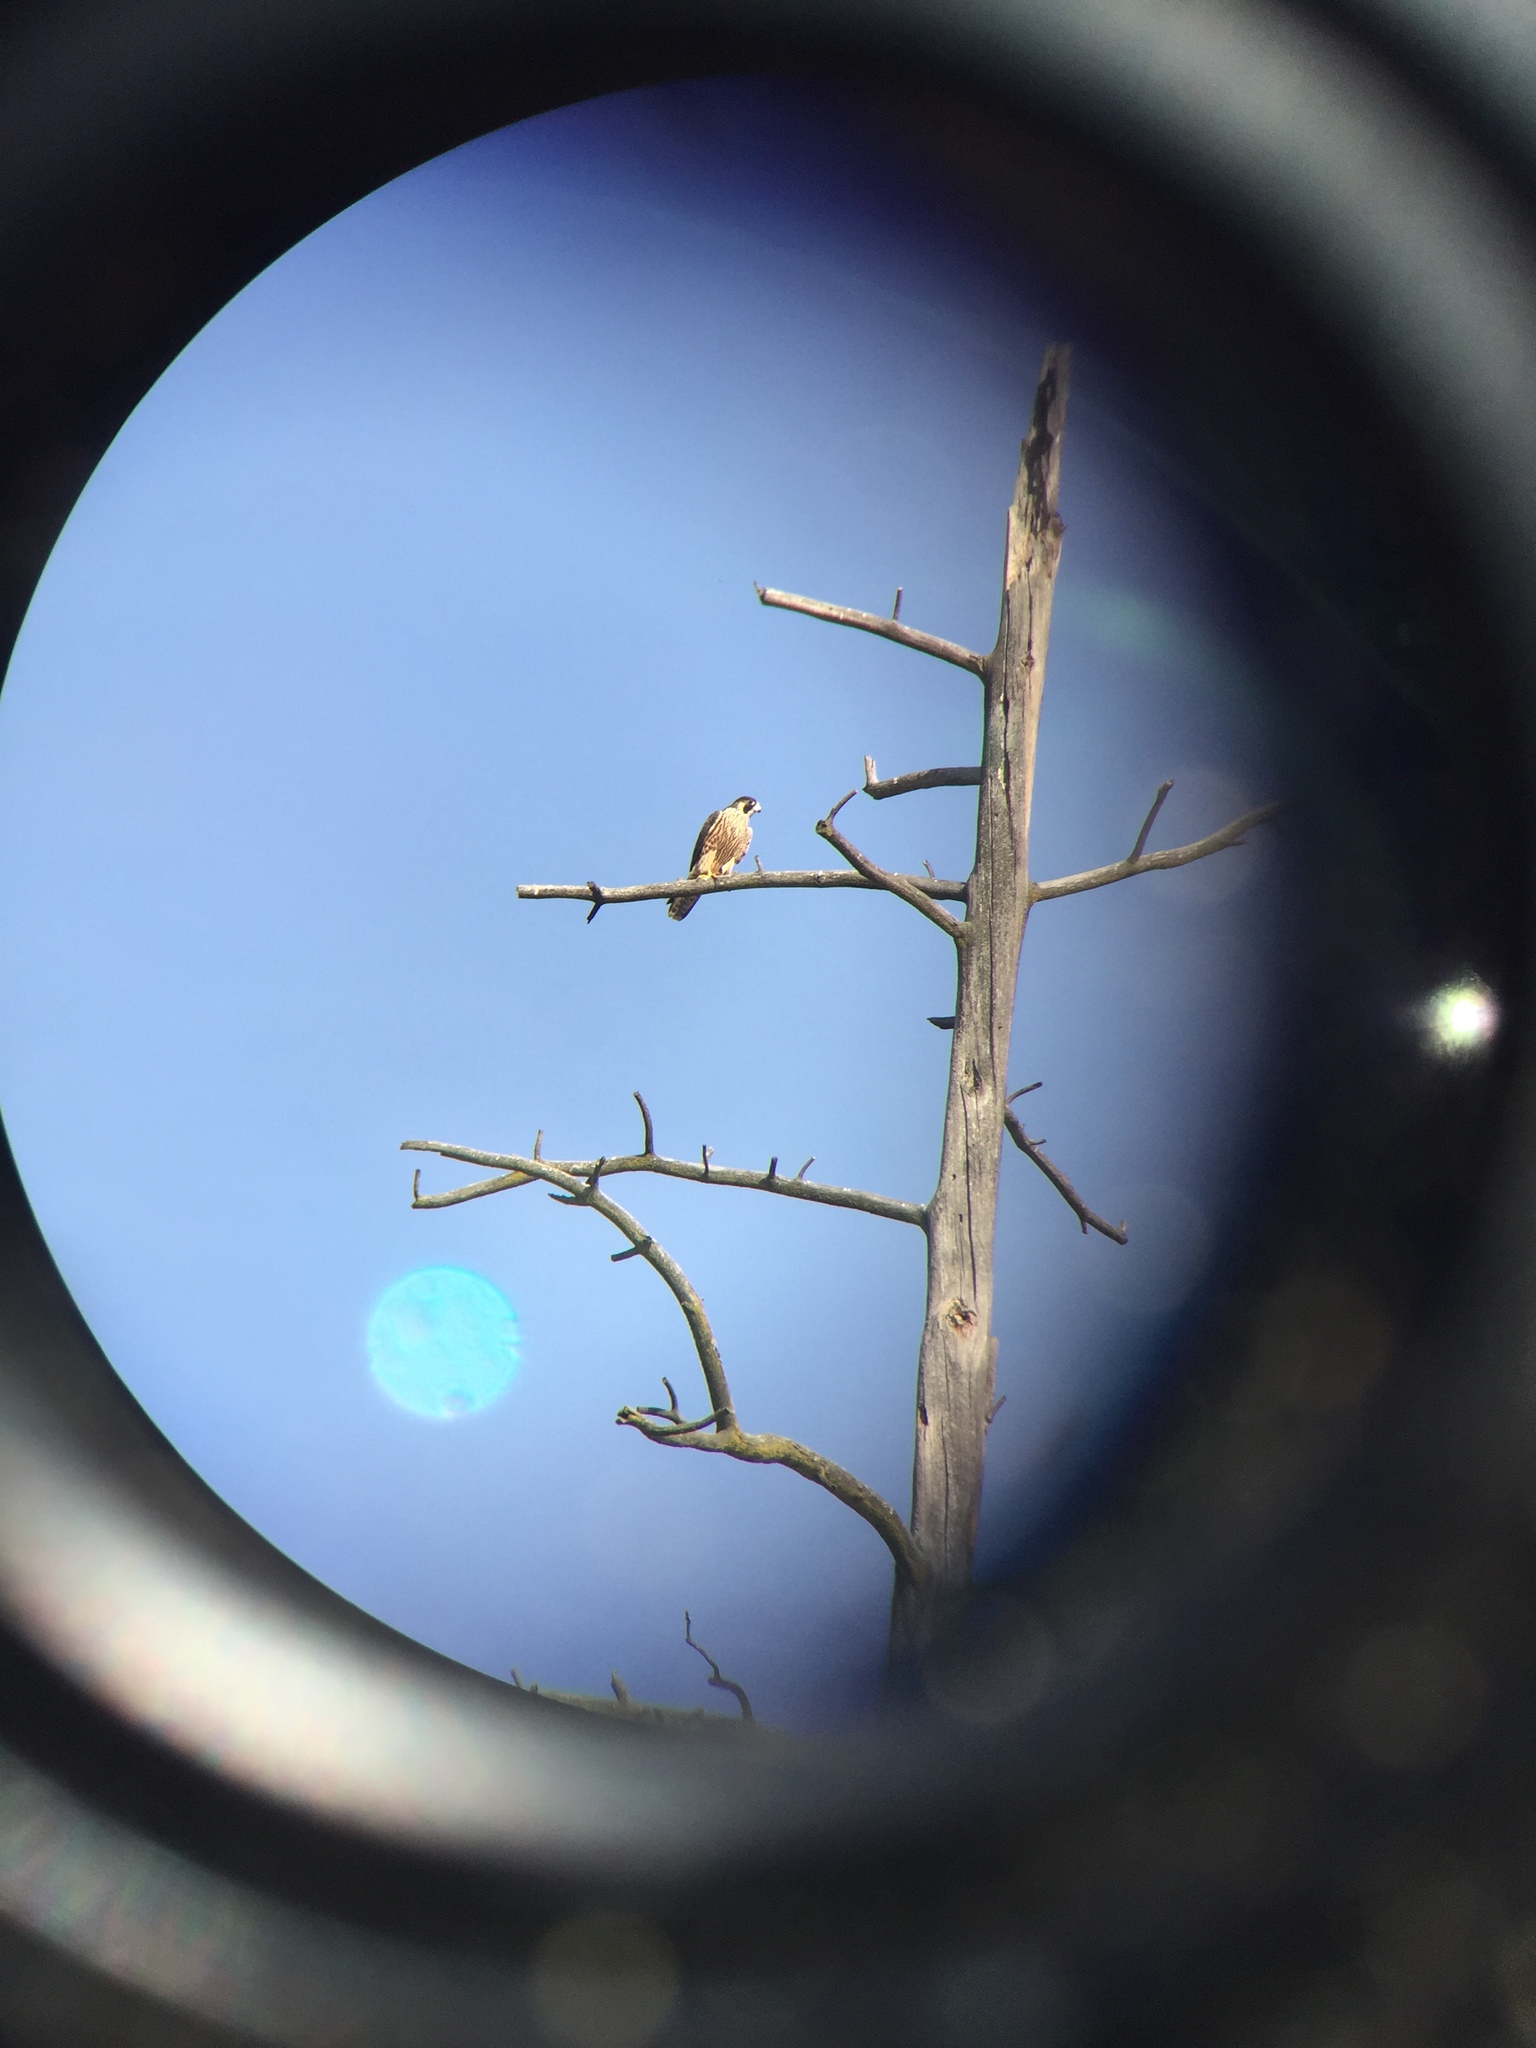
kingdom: Animalia
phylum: Chordata
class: Aves
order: Falconiformes
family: Falconidae
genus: Falco
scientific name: Falco peregrinus
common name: Peregrine falcon
